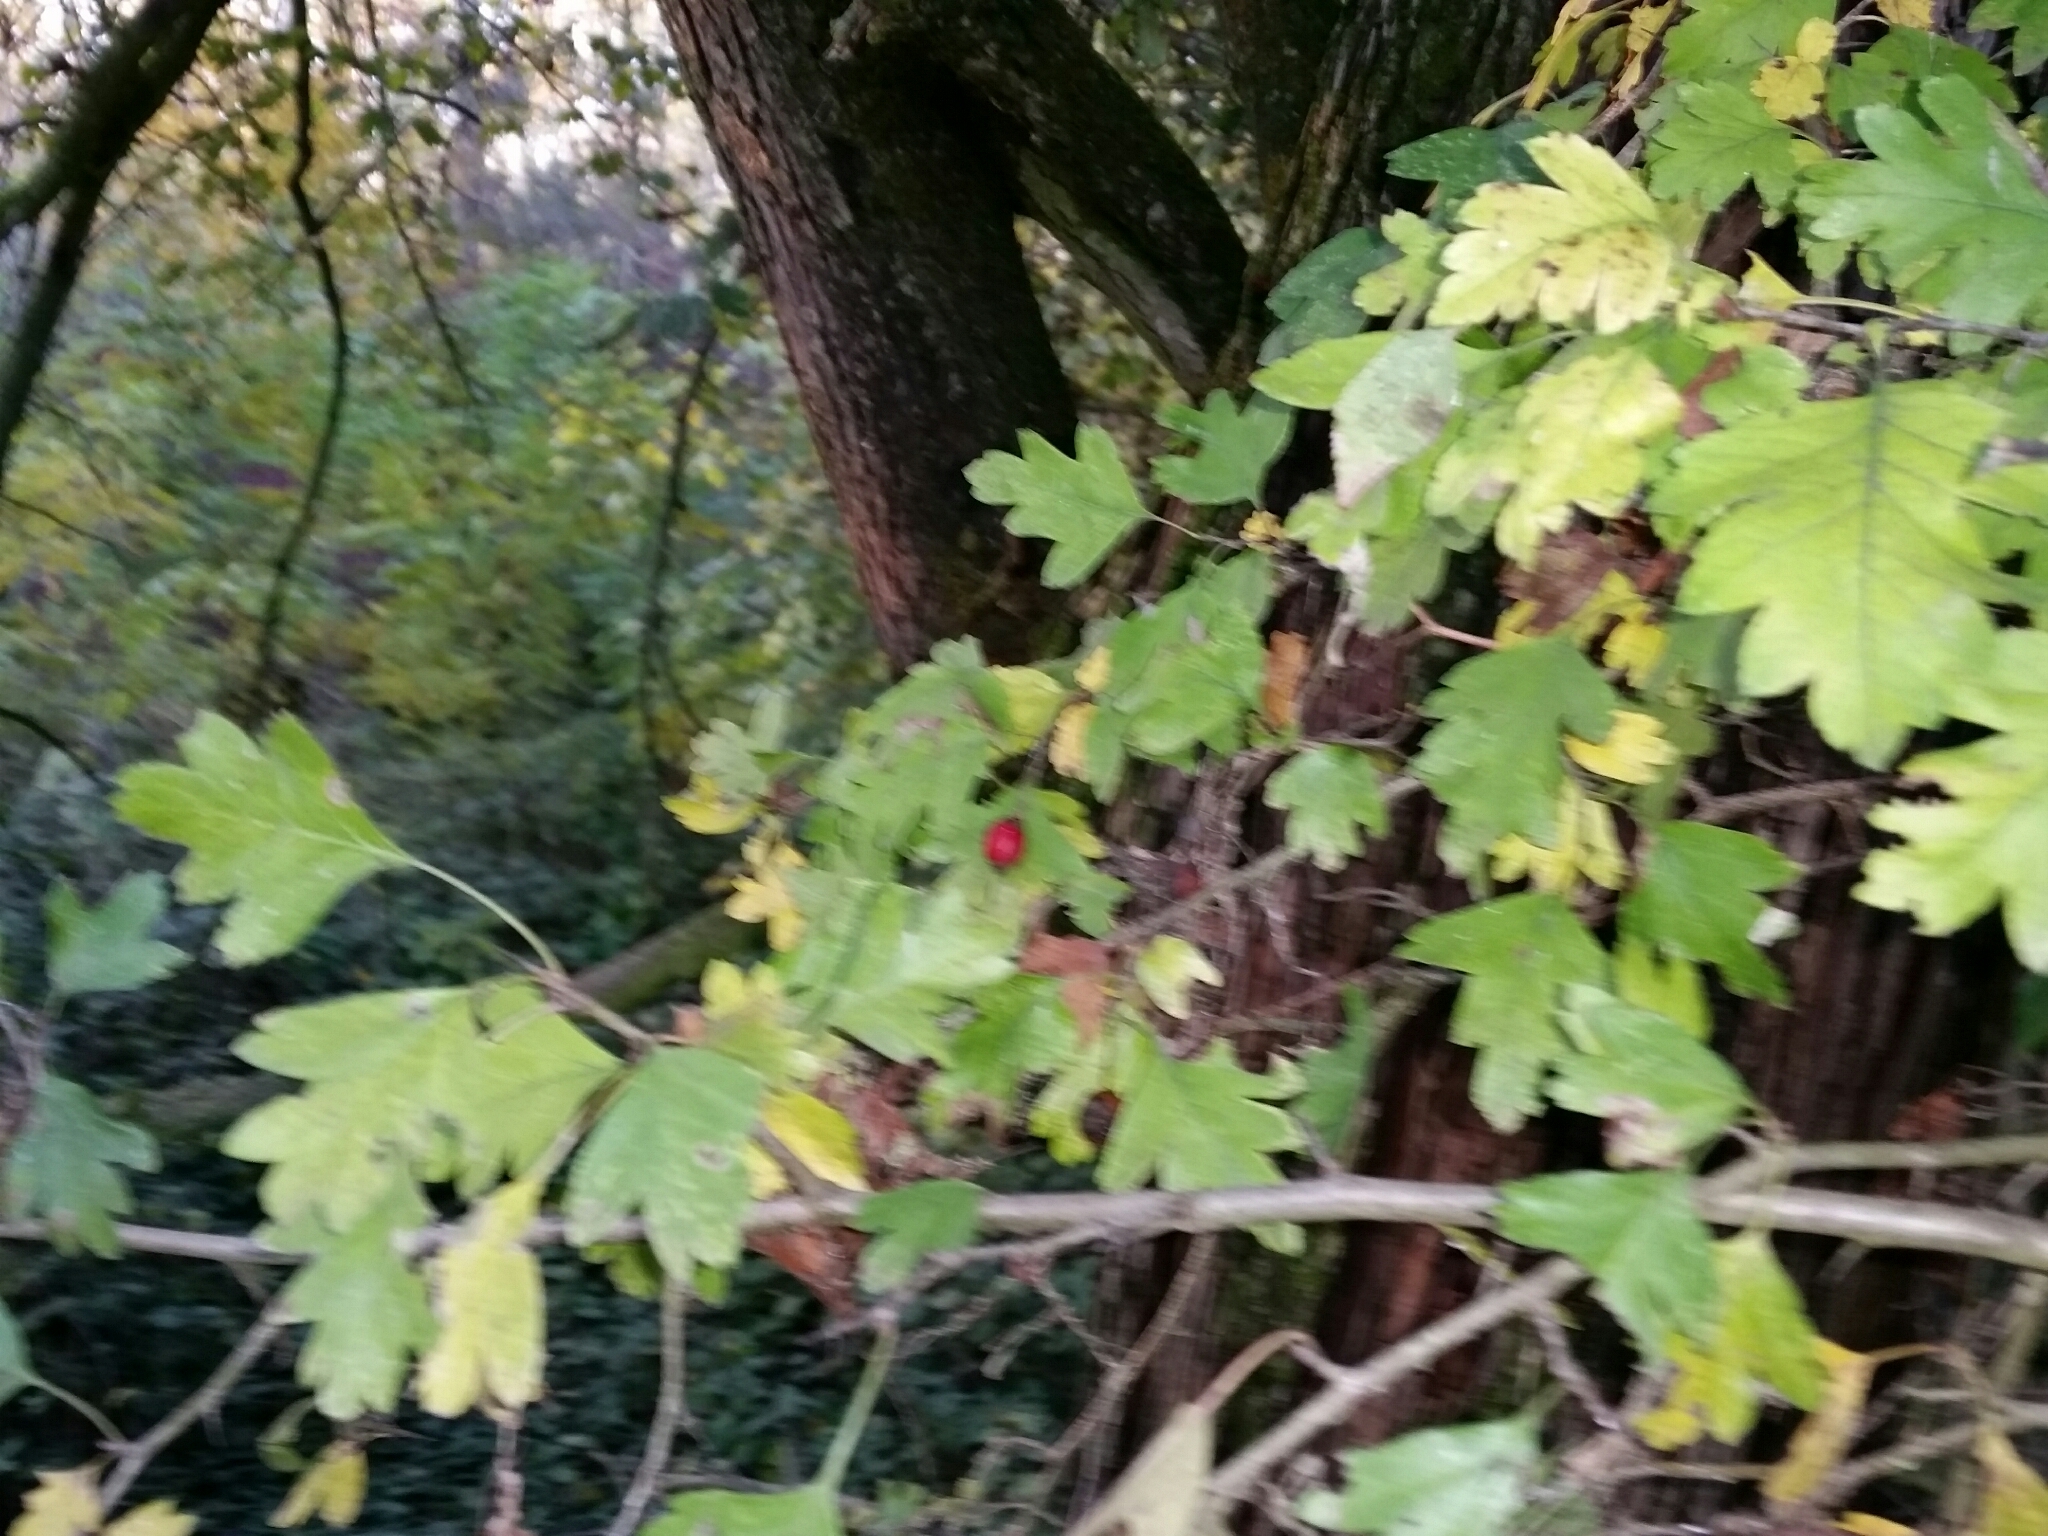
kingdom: Plantae
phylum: Tracheophyta
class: Magnoliopsida
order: Rosales
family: Rosaceae
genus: Crataegus
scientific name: Crataegus monogyna
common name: Hawthorn
